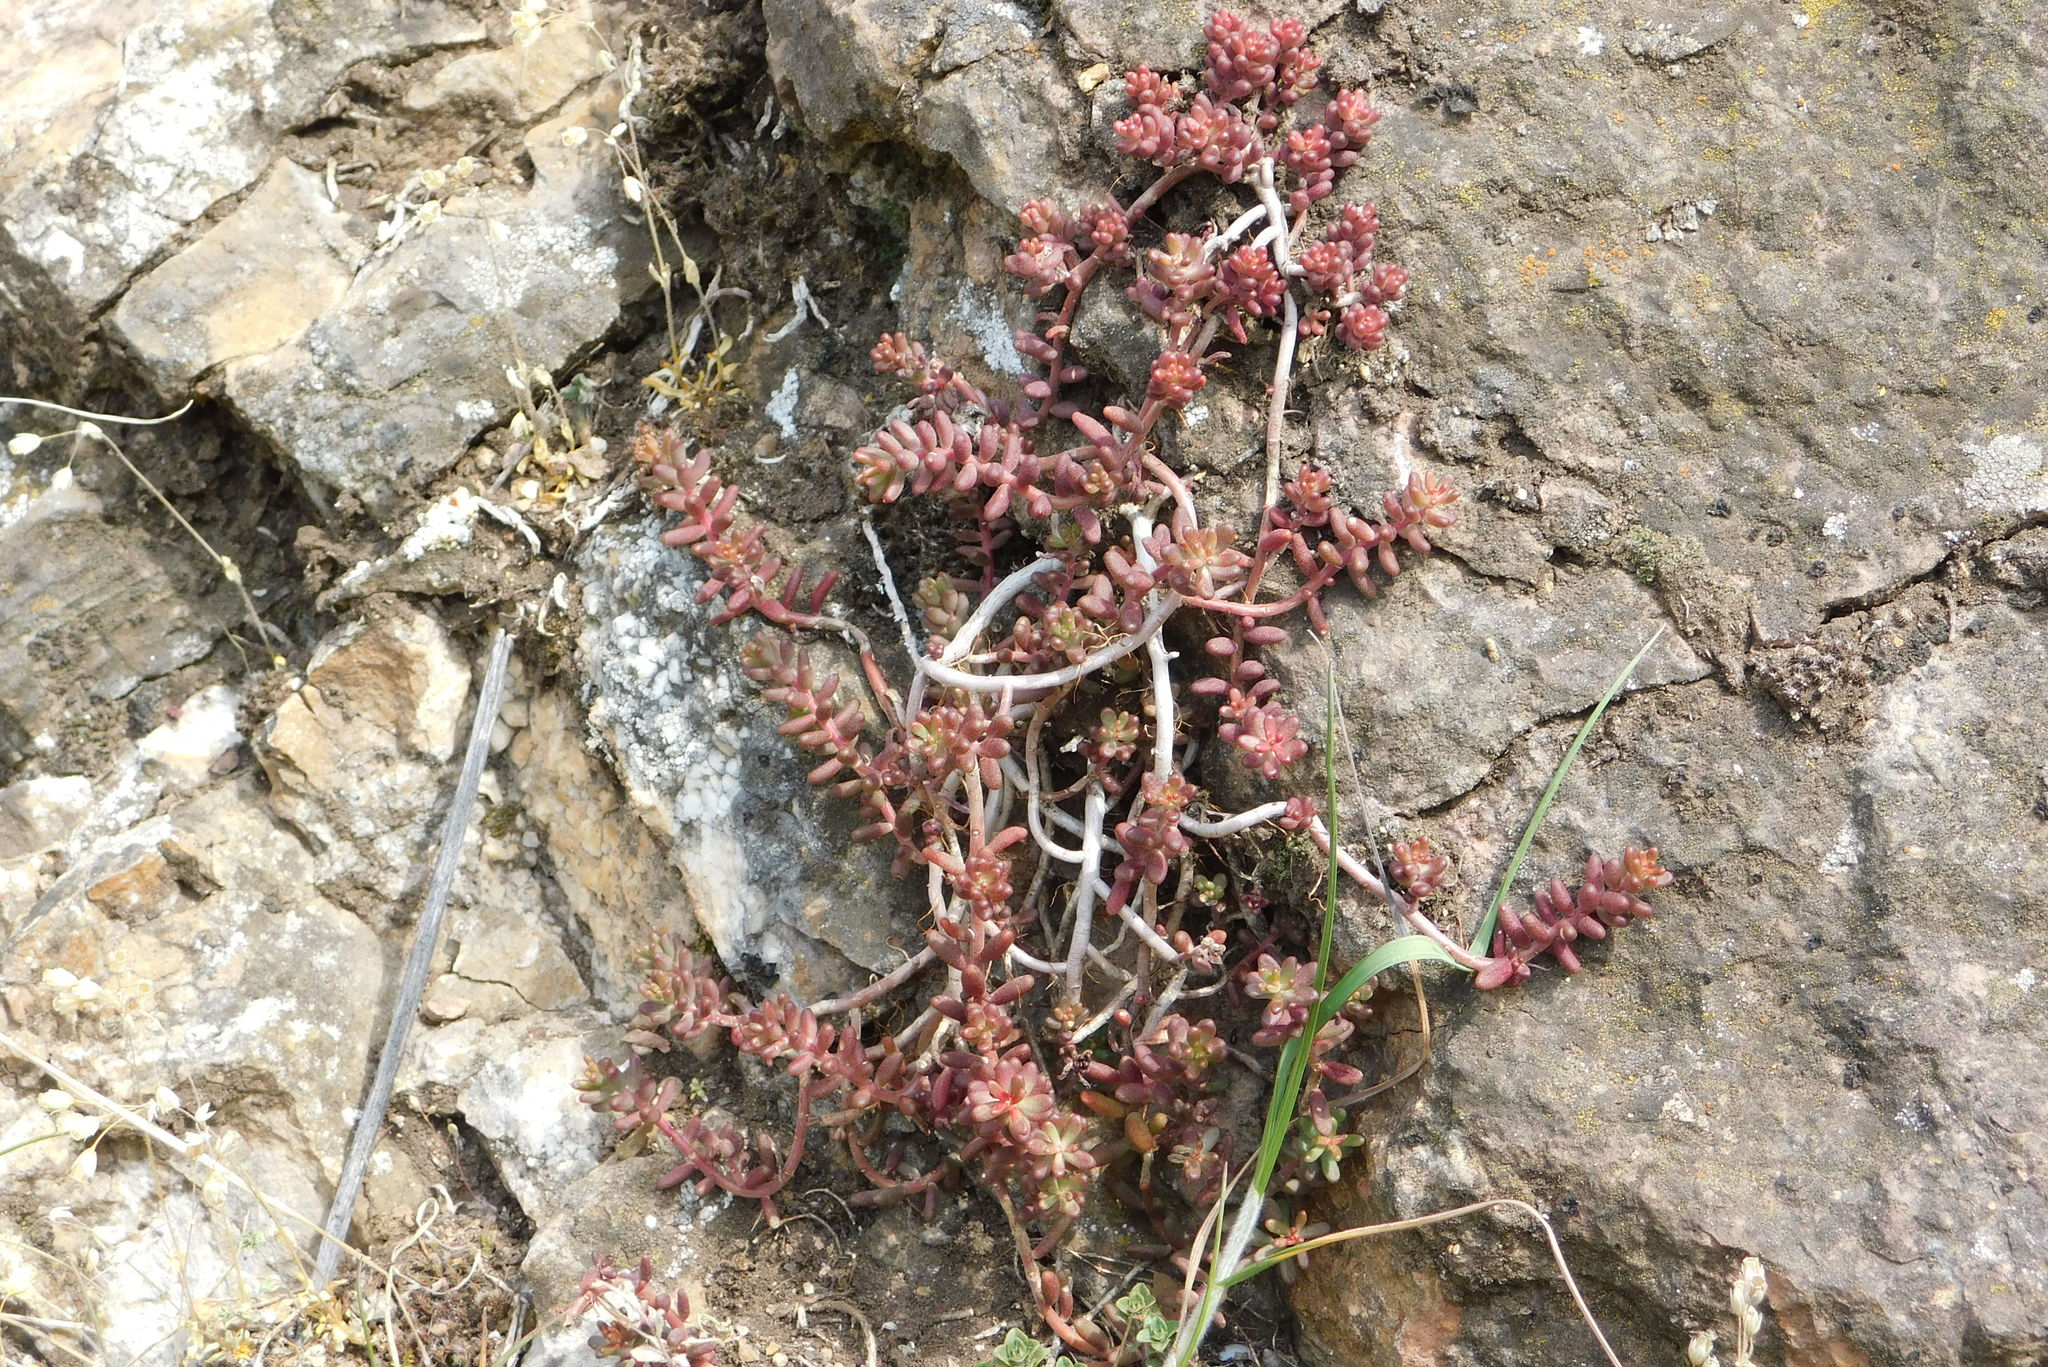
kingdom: Plantae
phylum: Tracheophyta
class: Magnoliopsida
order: Saxifragales
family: Crassulaceae
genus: Sedum
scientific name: Sedum album
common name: White stonecrop
